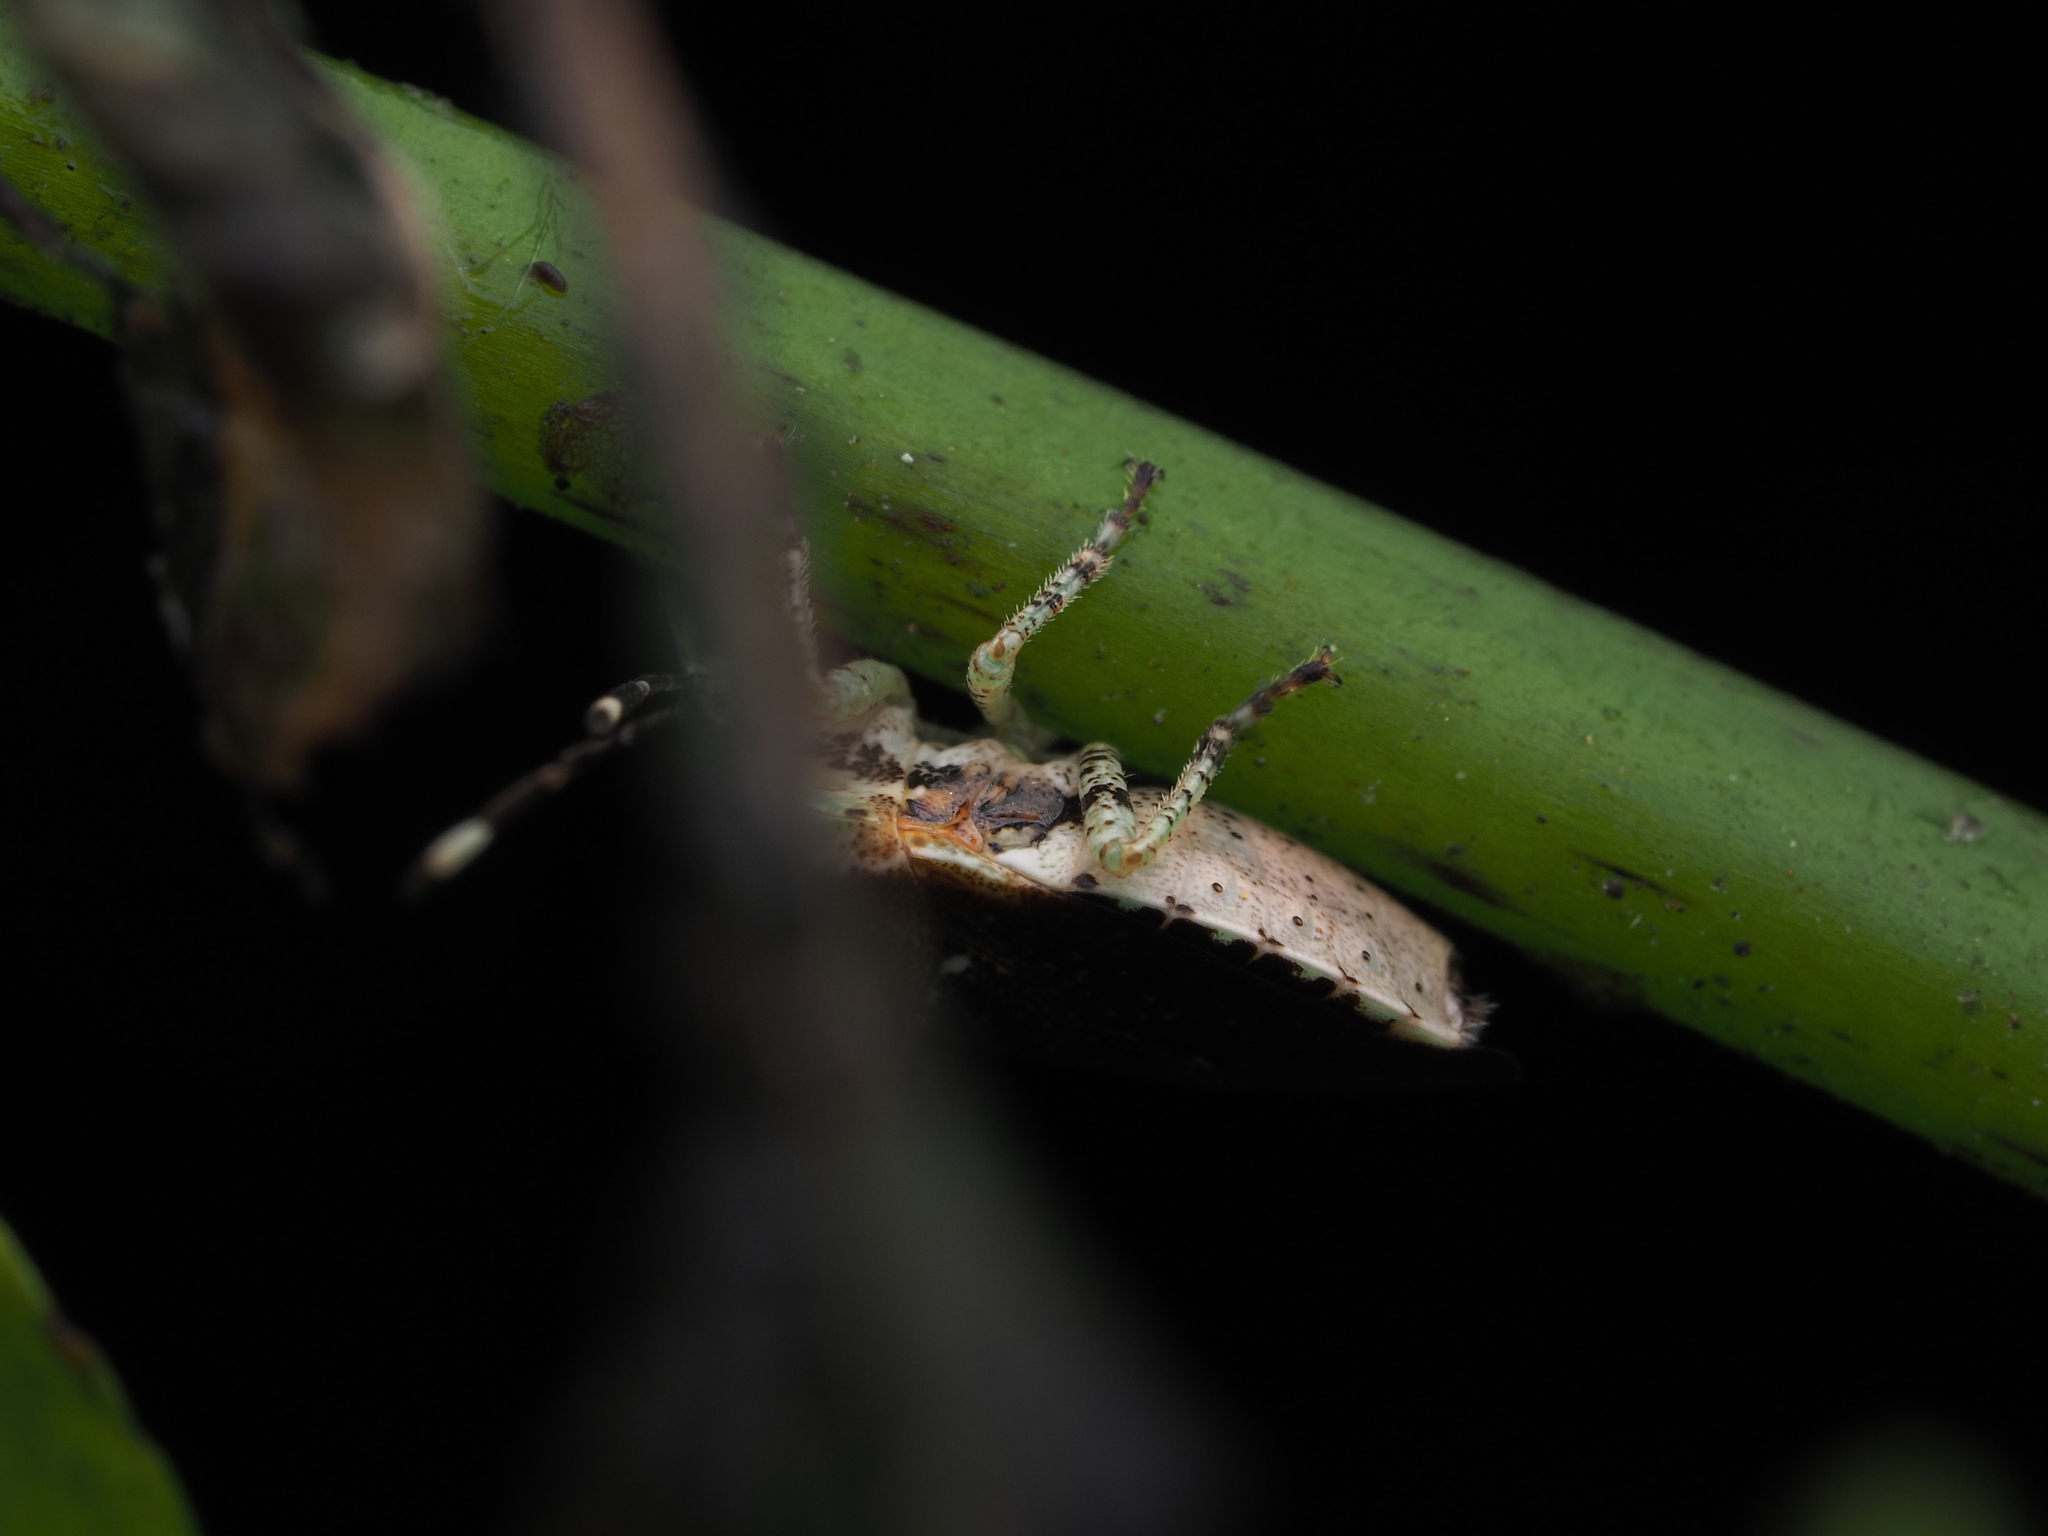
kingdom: Animalia
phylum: Arthropoda
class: Insecta
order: Hemiptera
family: Pentatomidae
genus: Monteithiella
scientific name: Monteithiella
